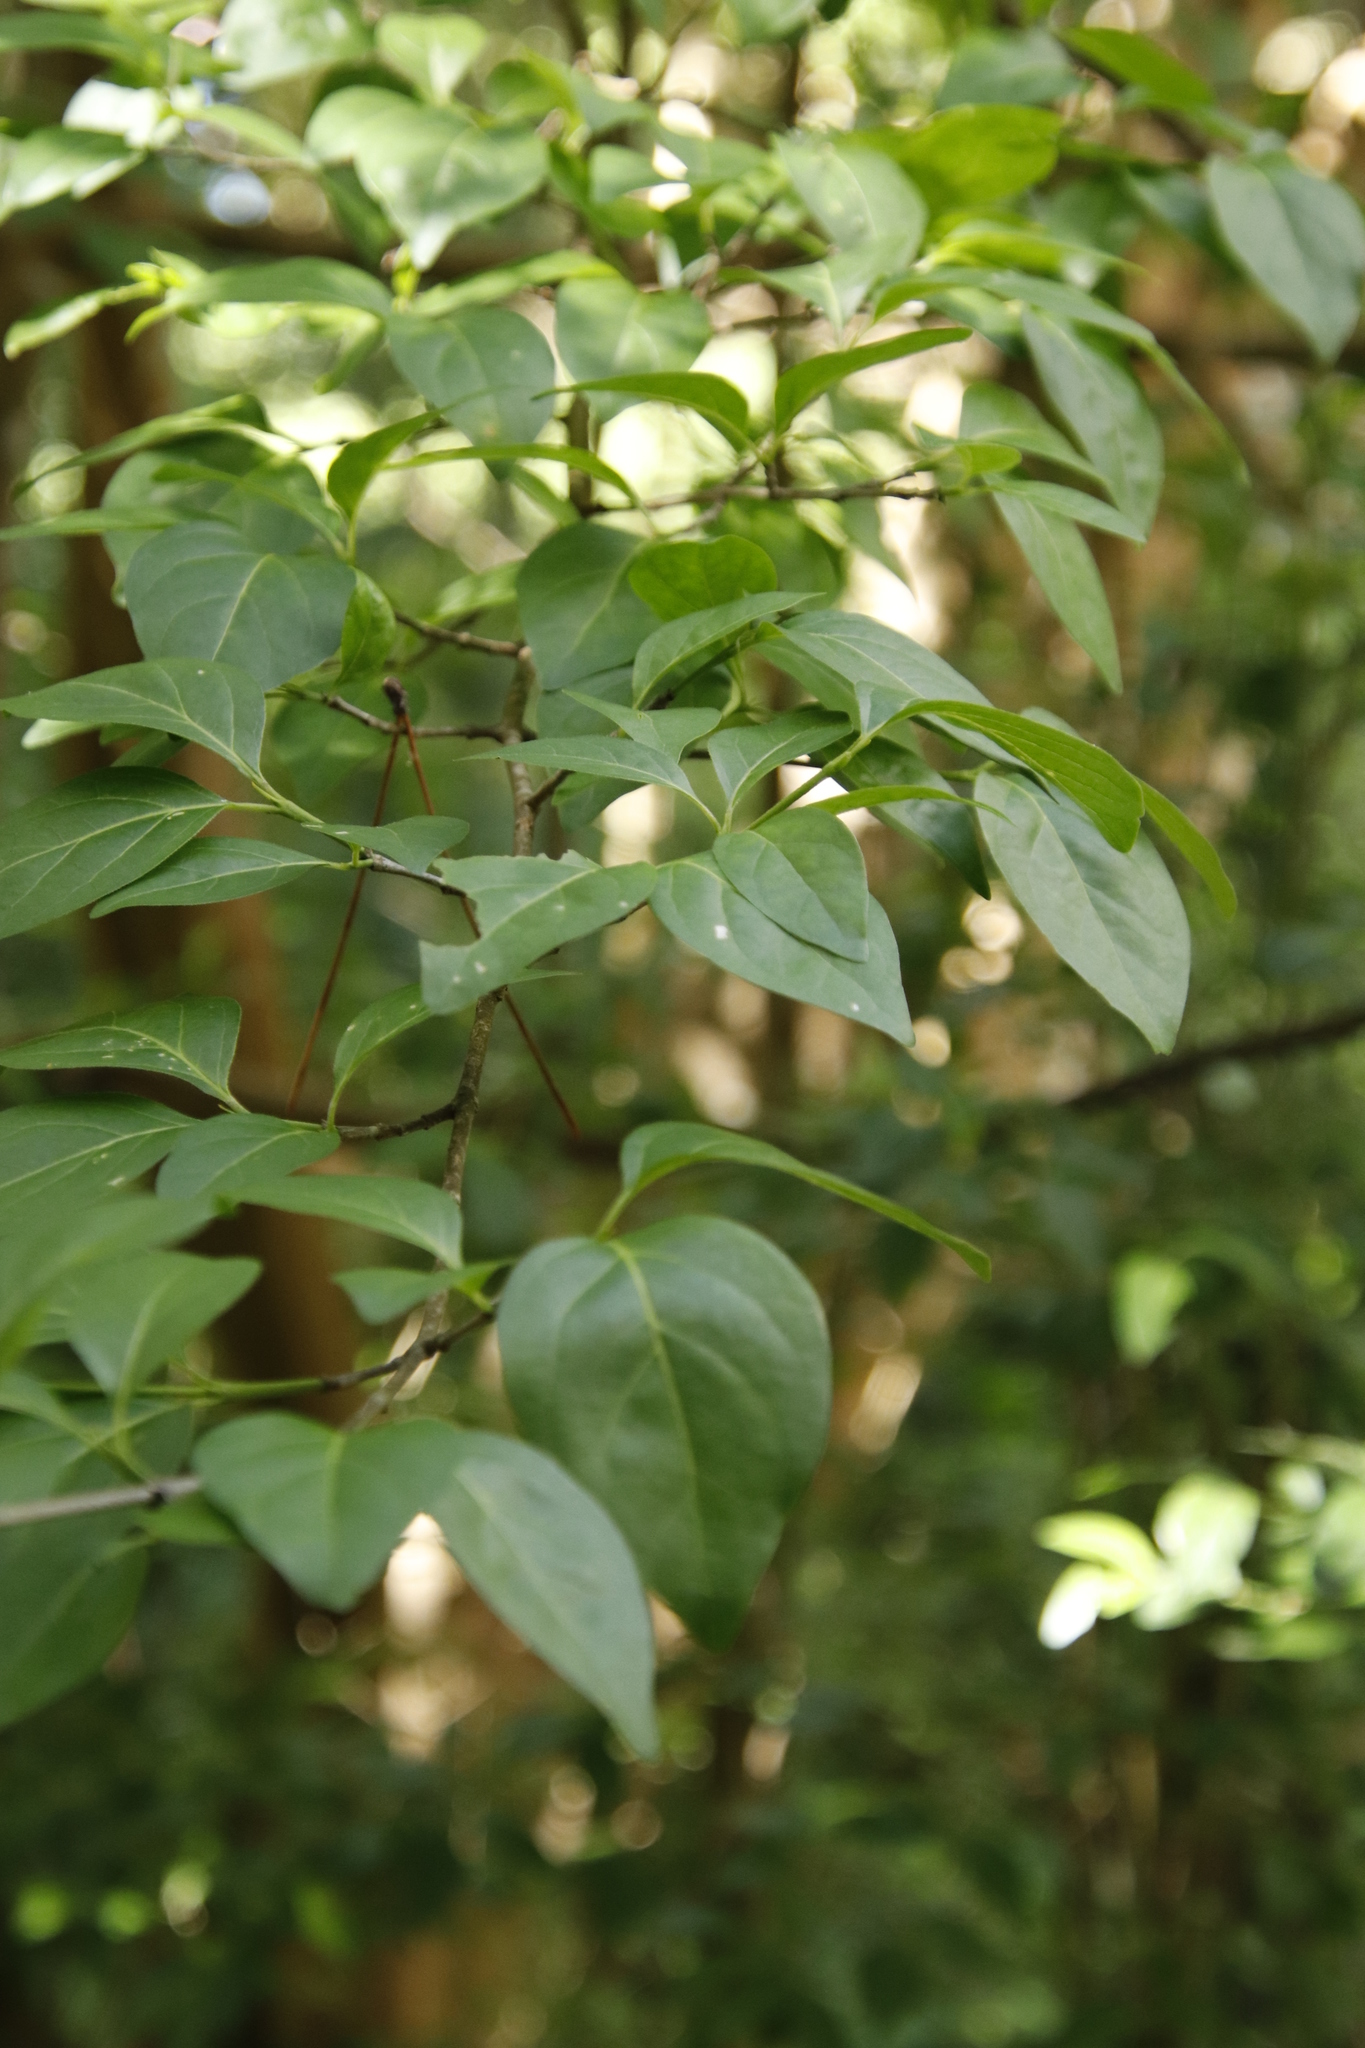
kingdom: Plantae
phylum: Tracheophyta
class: Magnoliopsida
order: Gentianales
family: Rubiaceae
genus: Afrocanthium
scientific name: Afrocanthium mundianum
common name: Rock-alder
